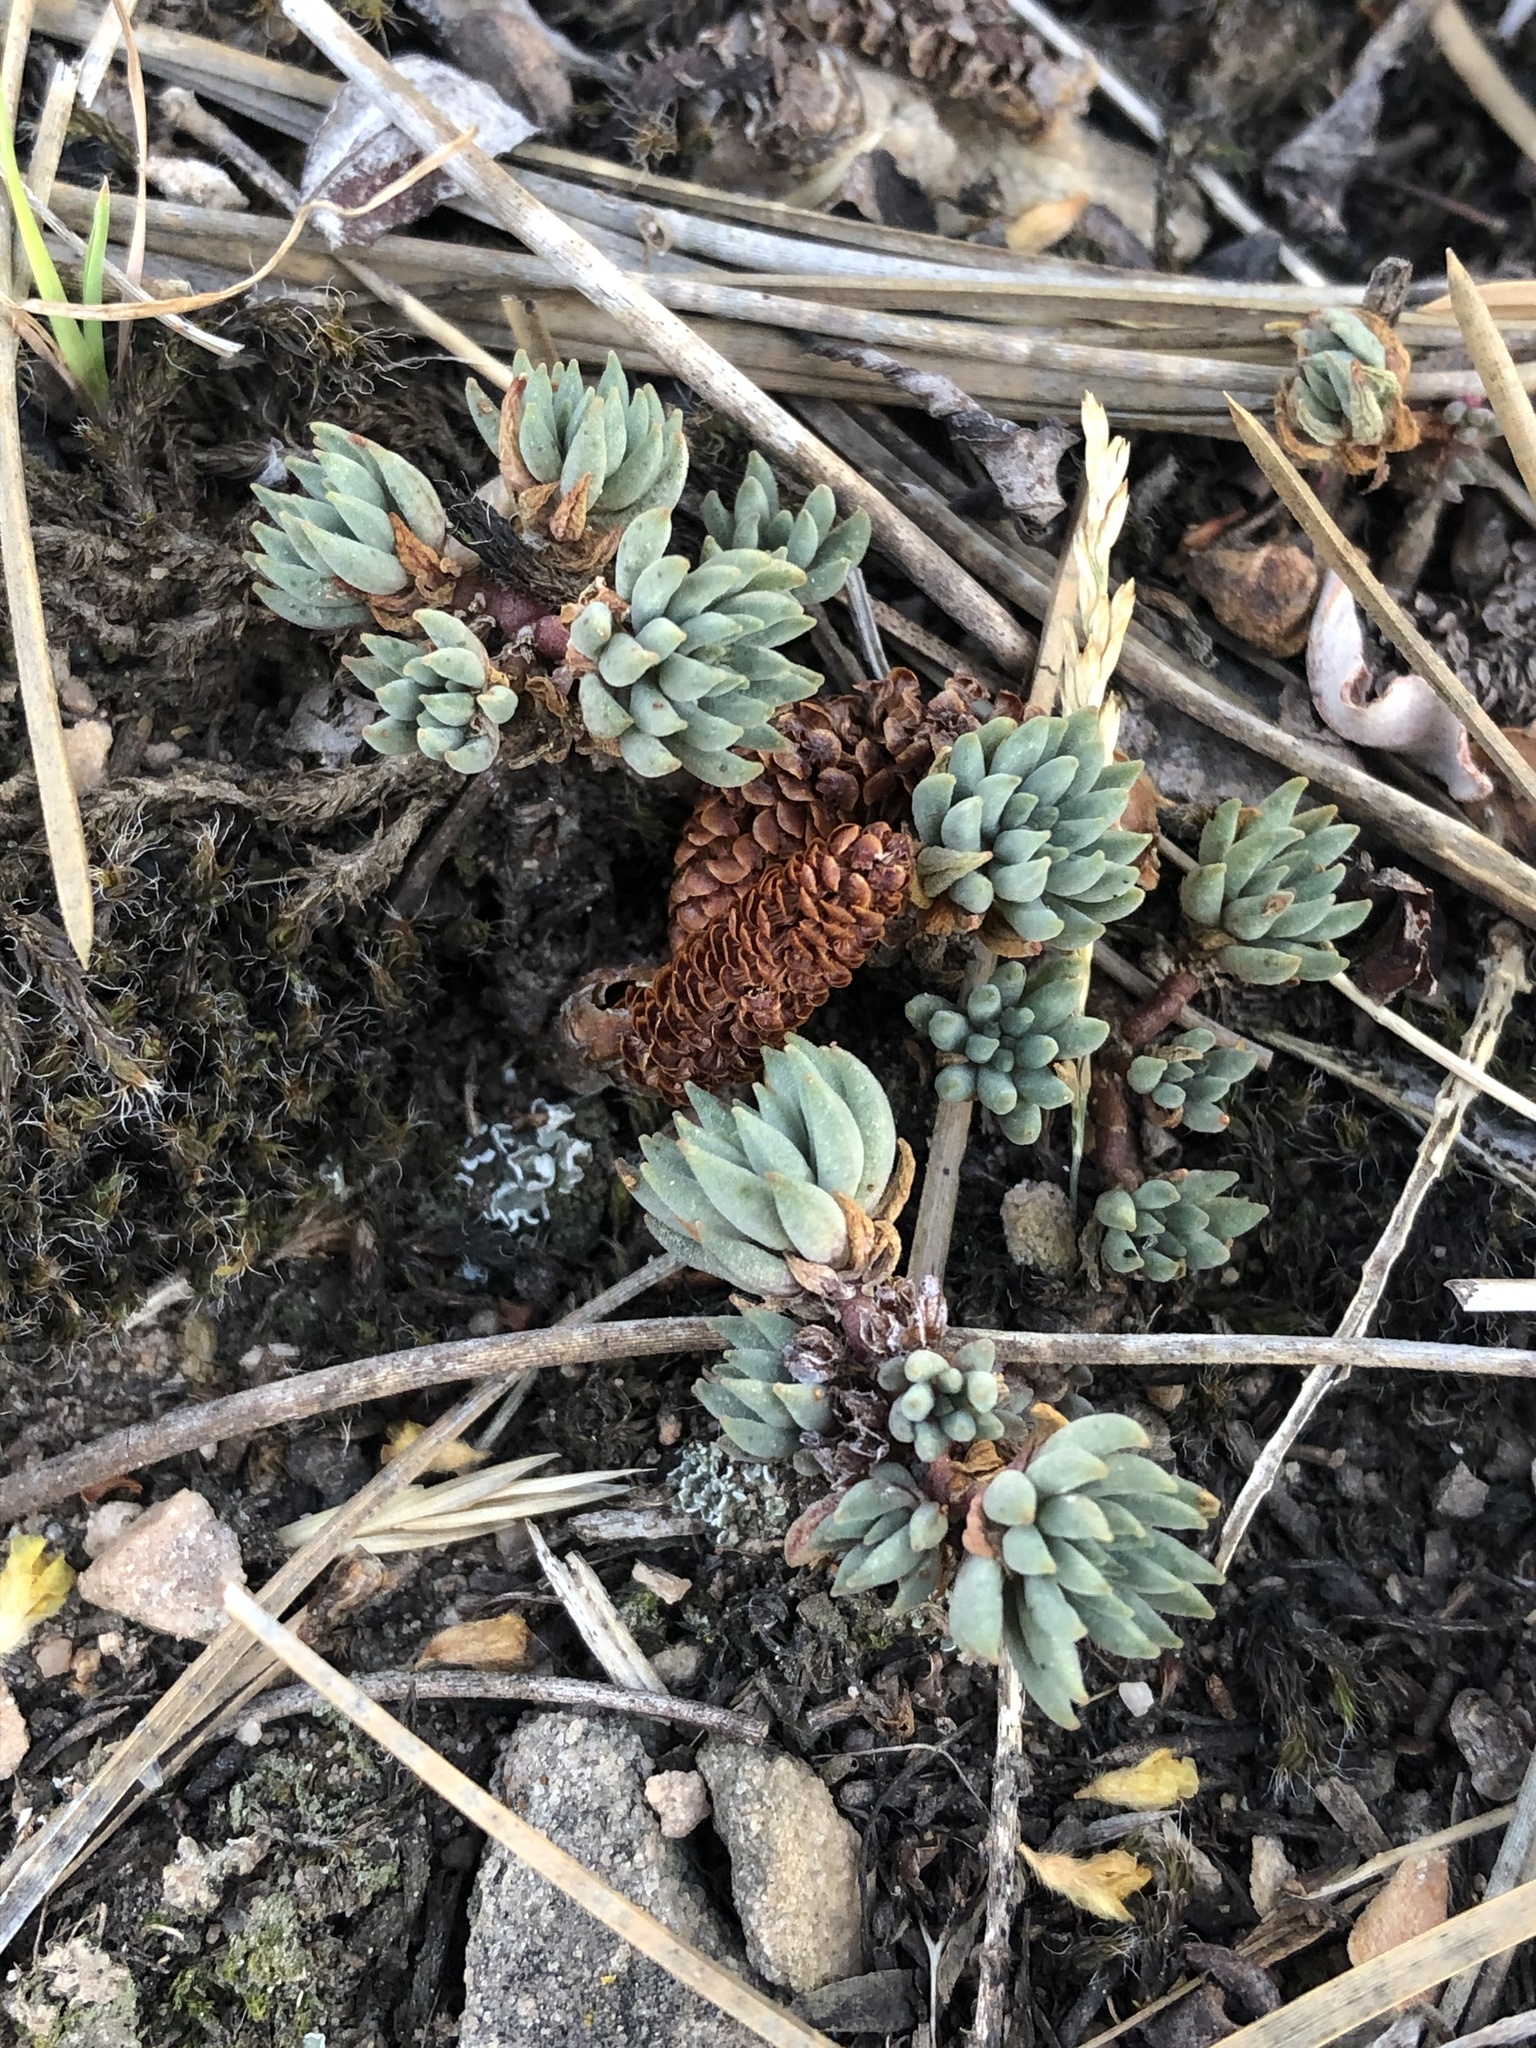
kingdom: Plantae
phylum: Tracheophyta
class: Magnoliopsida
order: Saxifragales
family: Crassulaceae
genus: Sedum
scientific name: Sedum lanceolatum
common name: Common stonecrop
